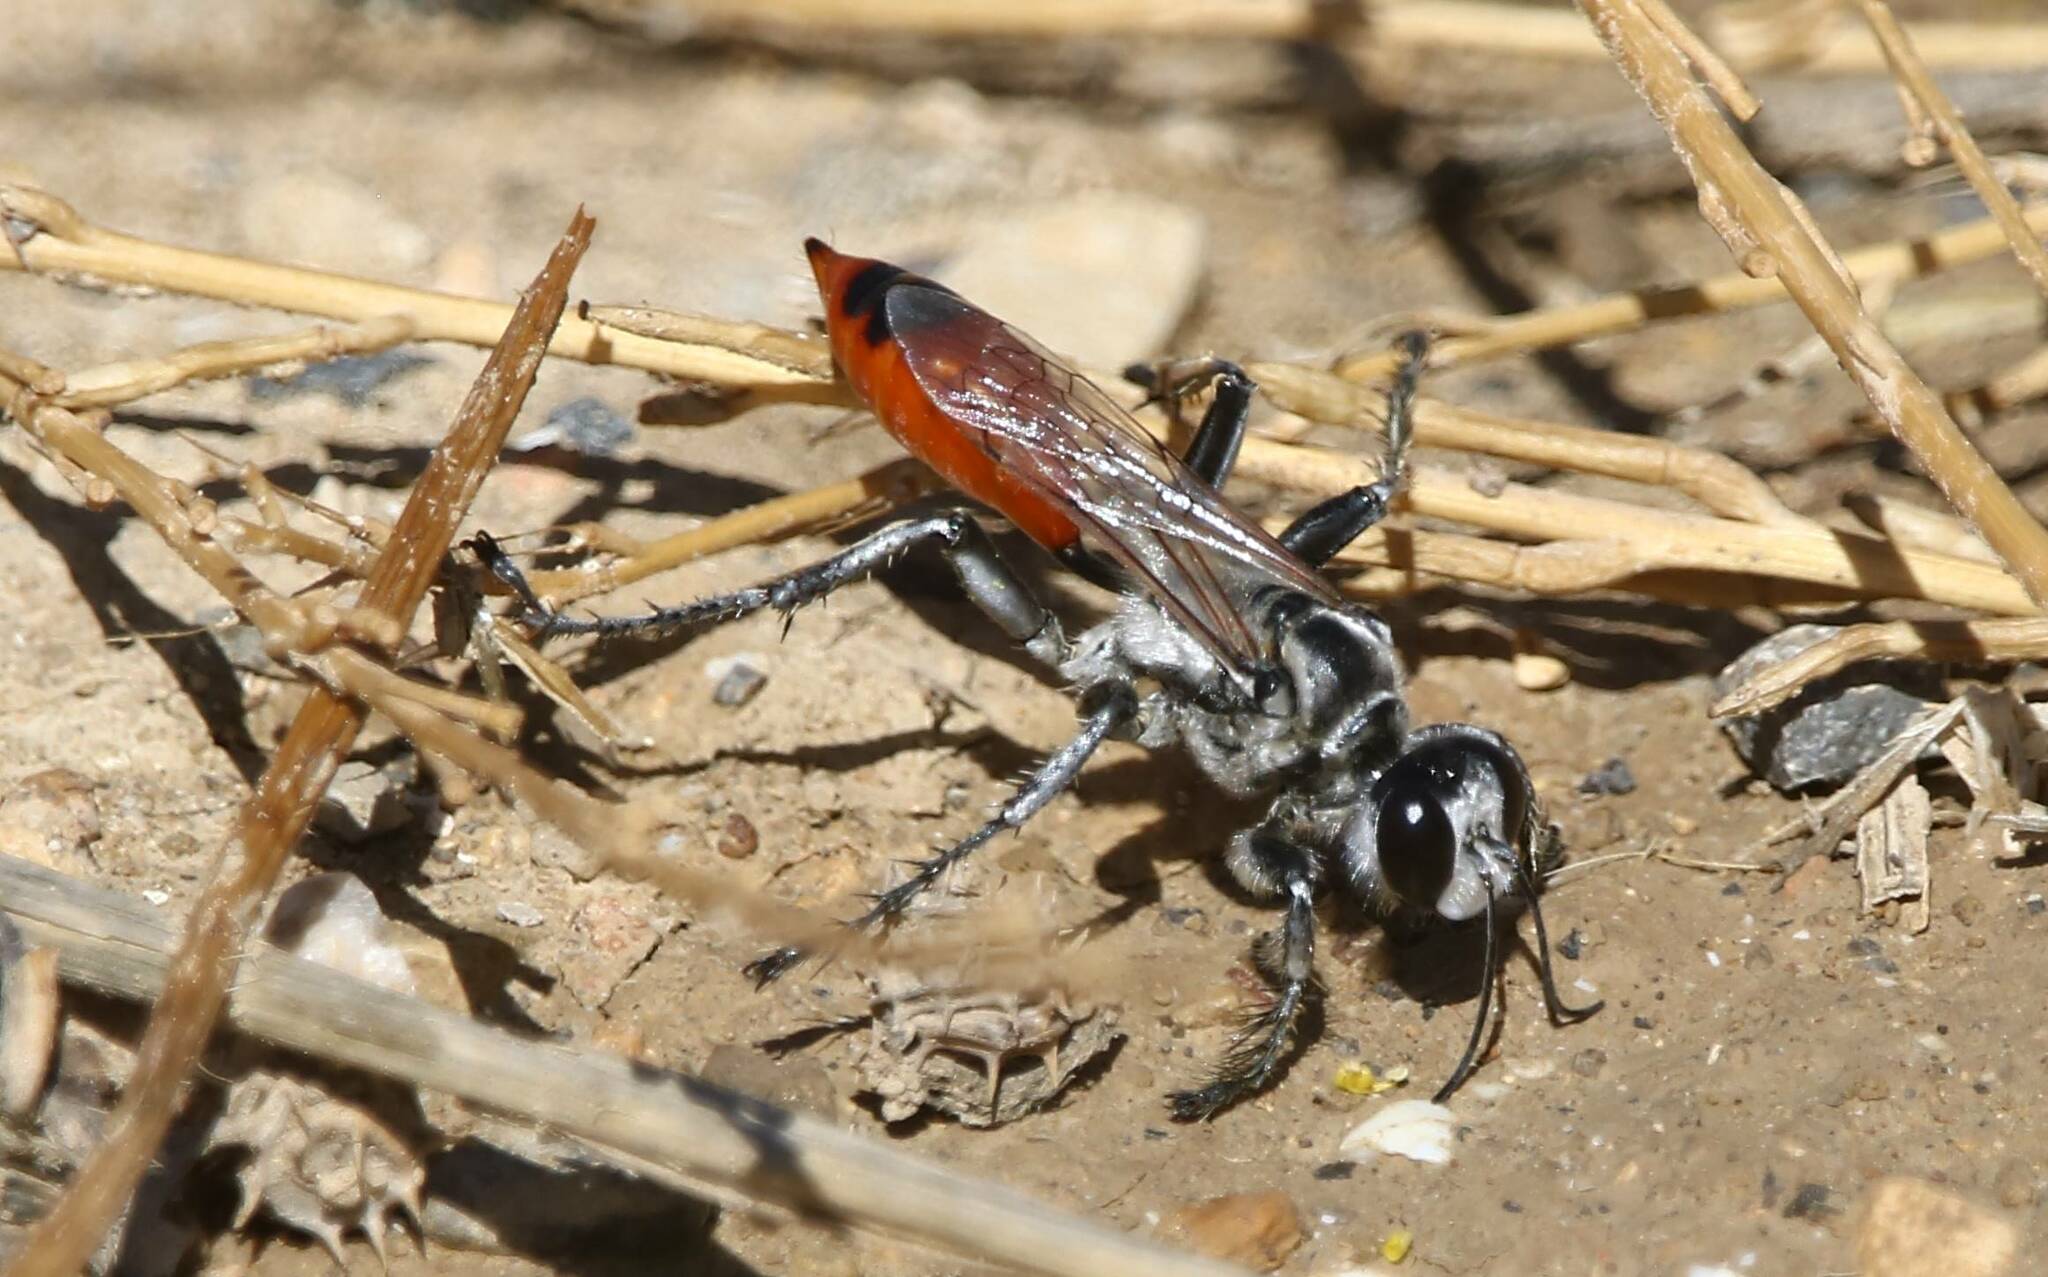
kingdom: Animalia
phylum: Arthropoda
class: Insecta
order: Hymenoptera
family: Sphecidae
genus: Prionyx
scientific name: Prionyx viduatus
